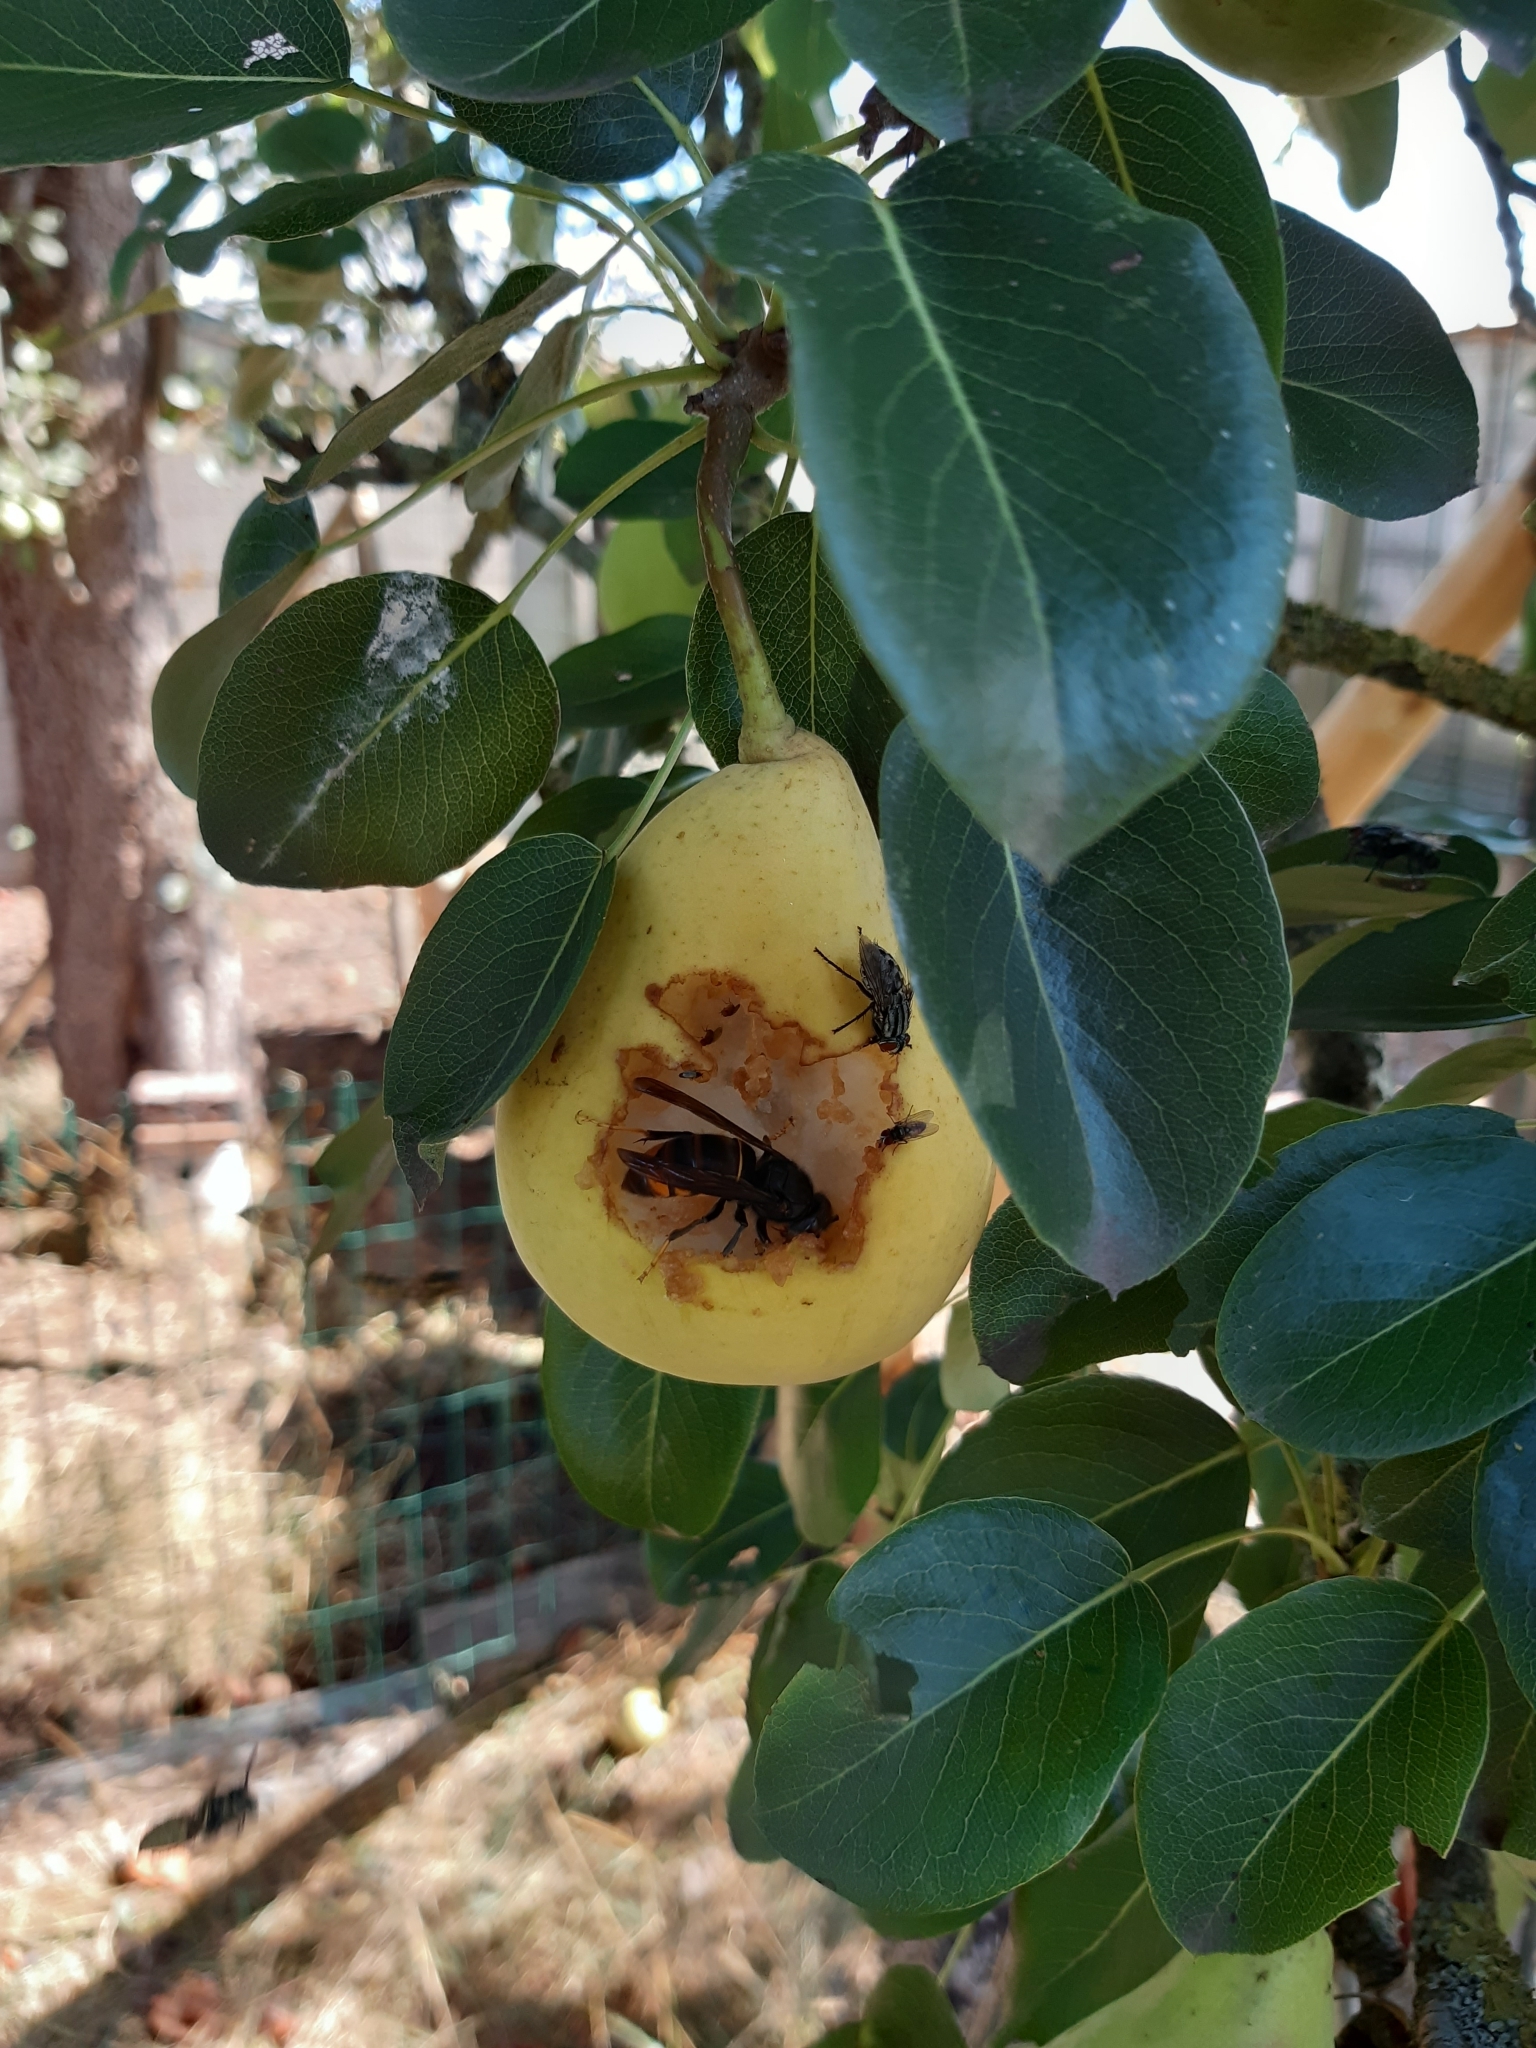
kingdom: Animalia
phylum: Arthropoda
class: Insecta
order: Hymenoptera
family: Vespidae
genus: Vespa
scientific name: Vespa velutina
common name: Asian hornet
